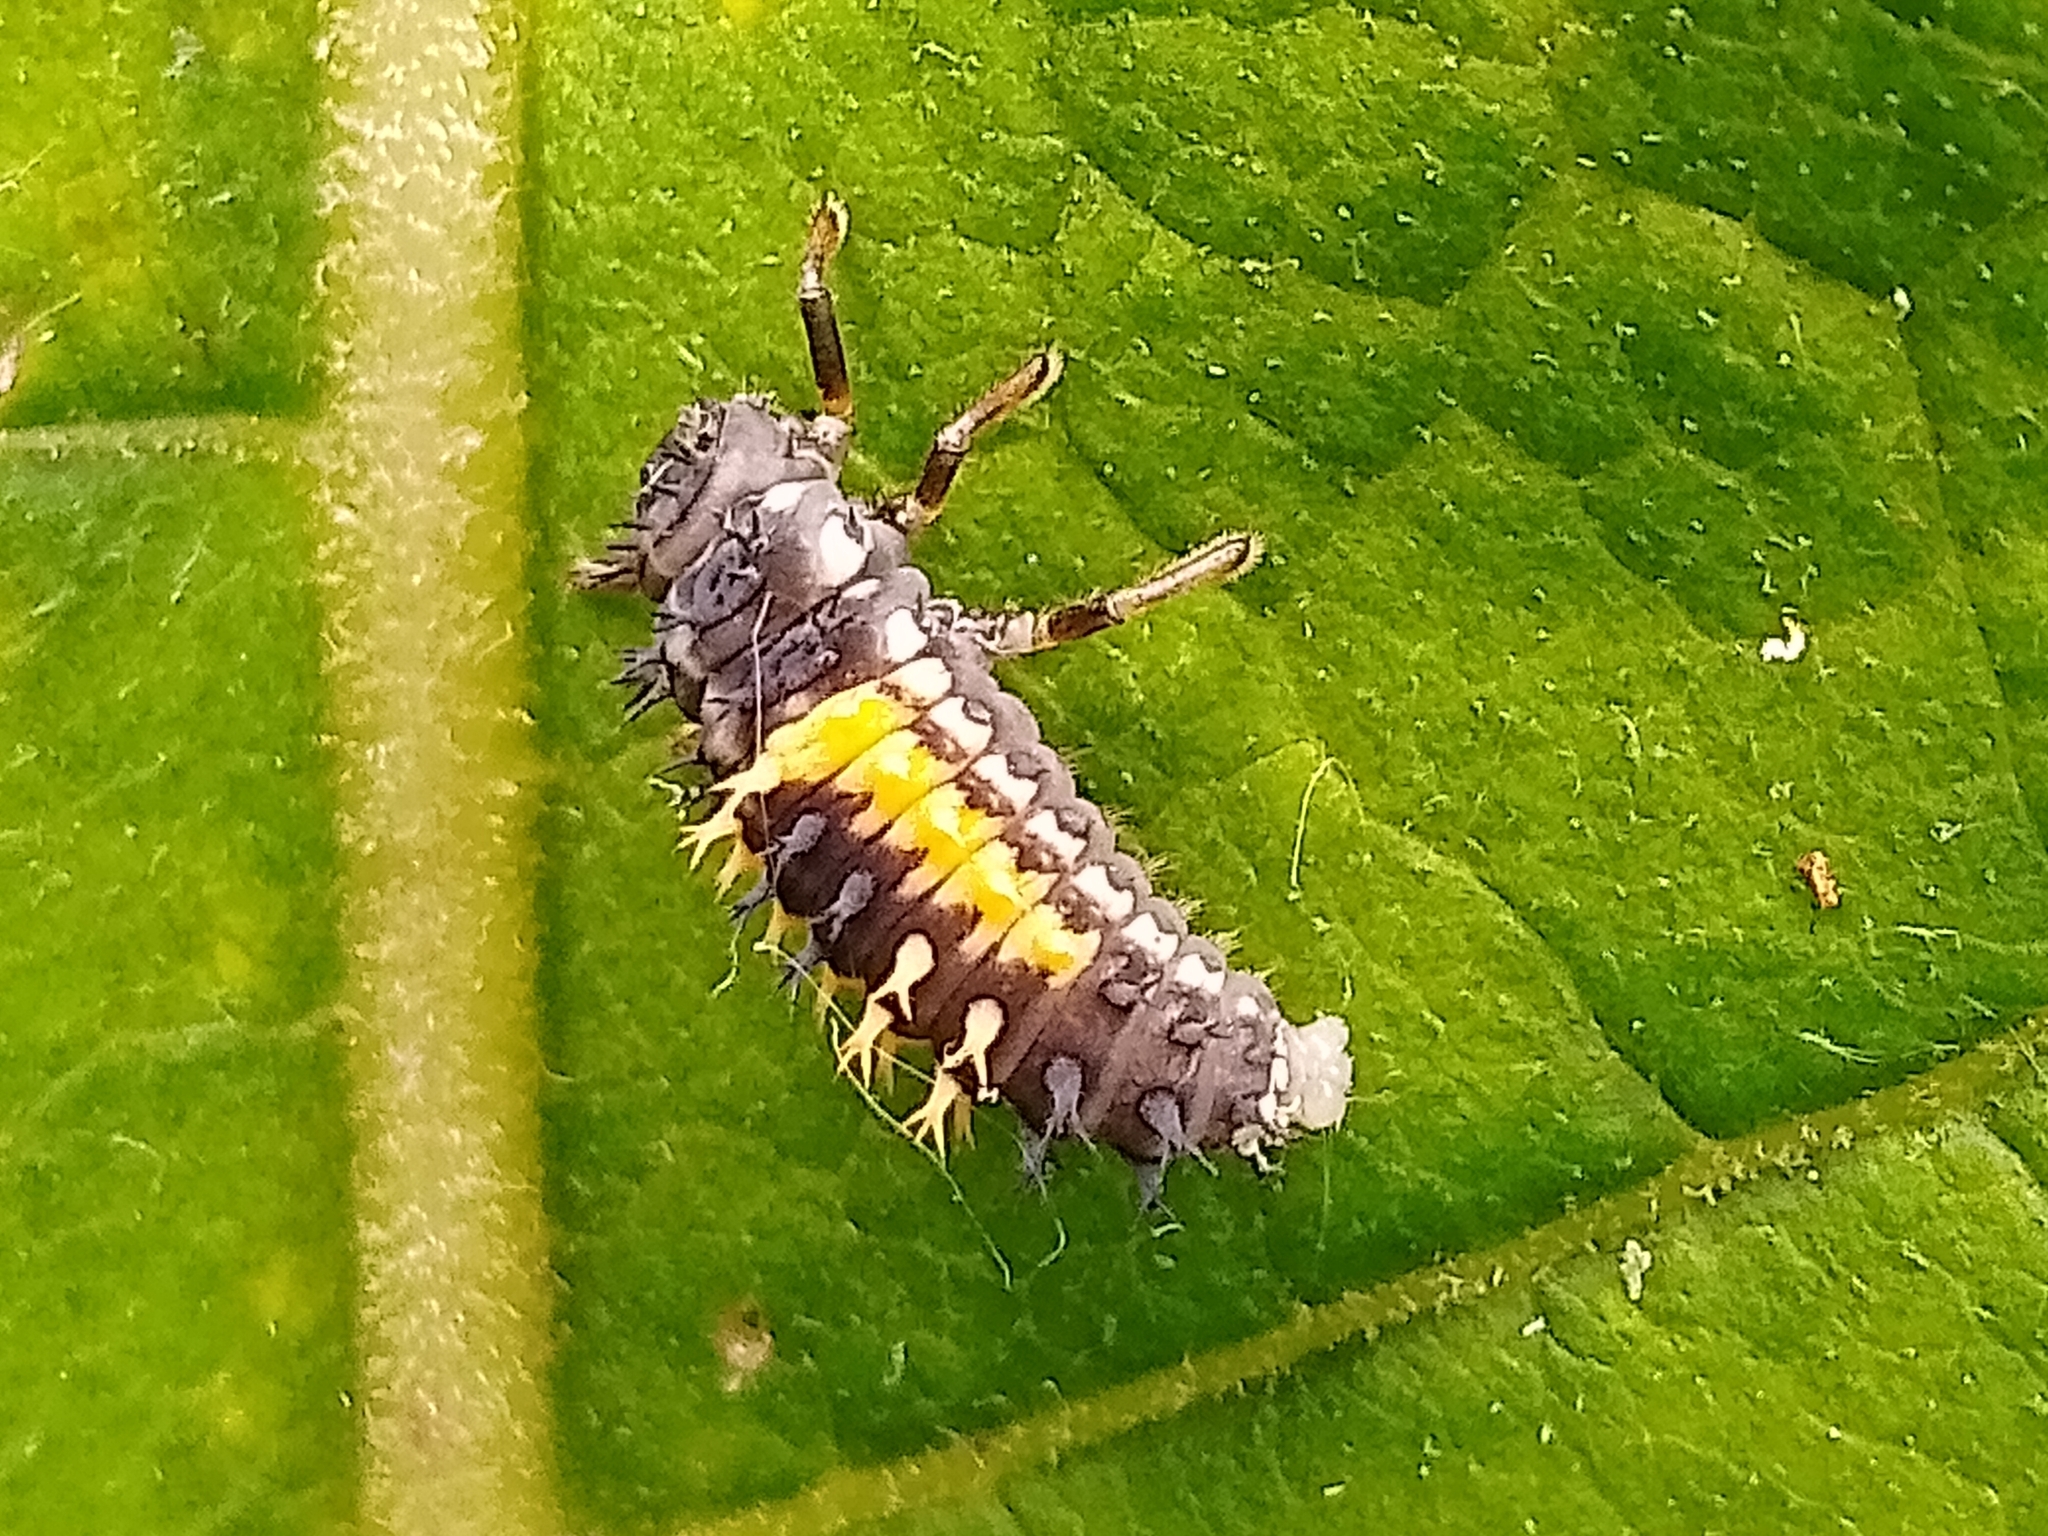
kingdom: Animalia
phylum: Arthropoda
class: Insecta
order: Coleoptera
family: Coccinellidae
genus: Harmonia
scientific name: Harmonia axyridis
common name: Harlequin ladybird
